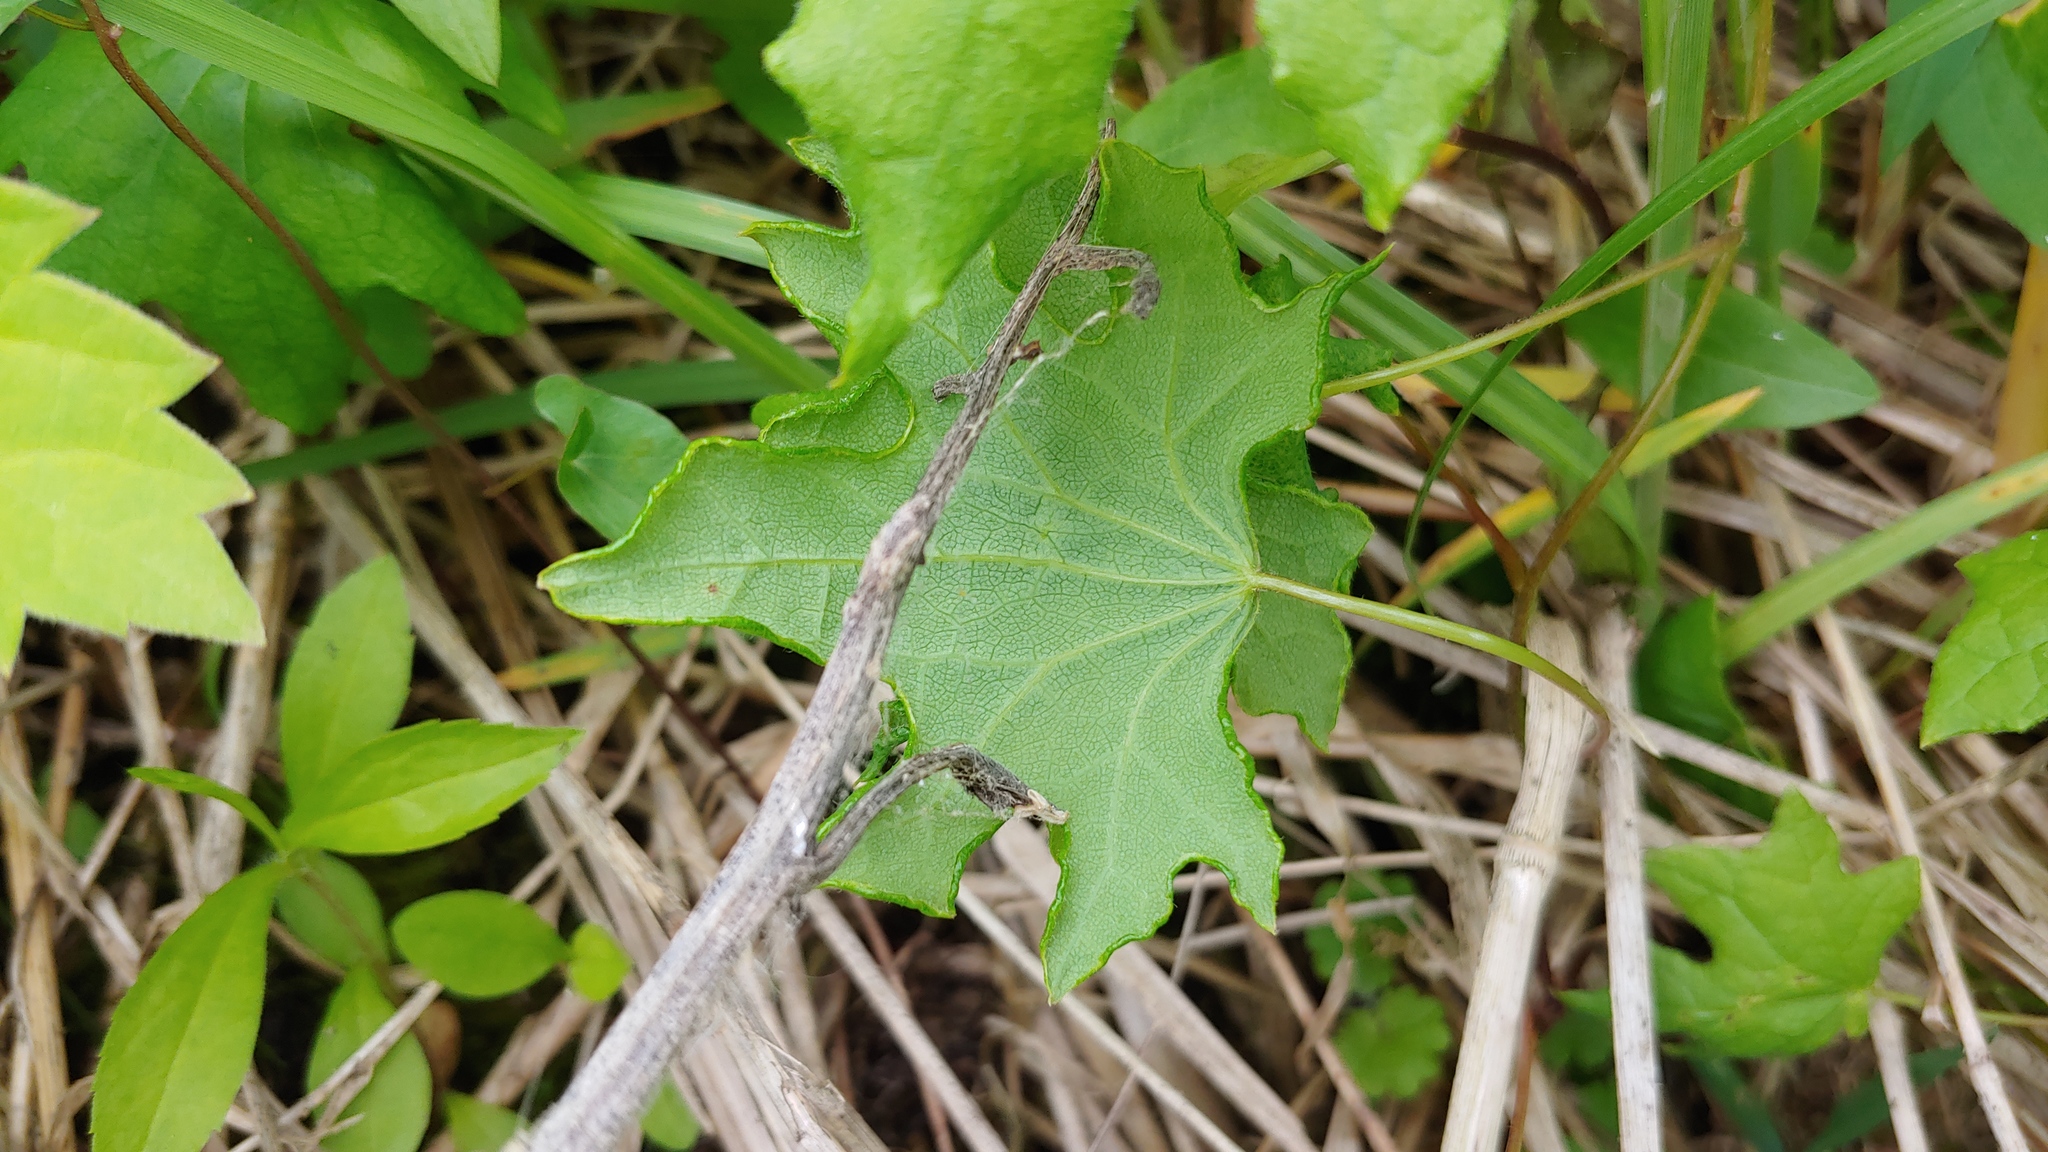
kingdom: Plantae
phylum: Tracheophyta
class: Magnoliopsida
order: Ranunculales
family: Menispermaceae
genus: Menispermum
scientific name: Menispermum canadense
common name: Moonseed
